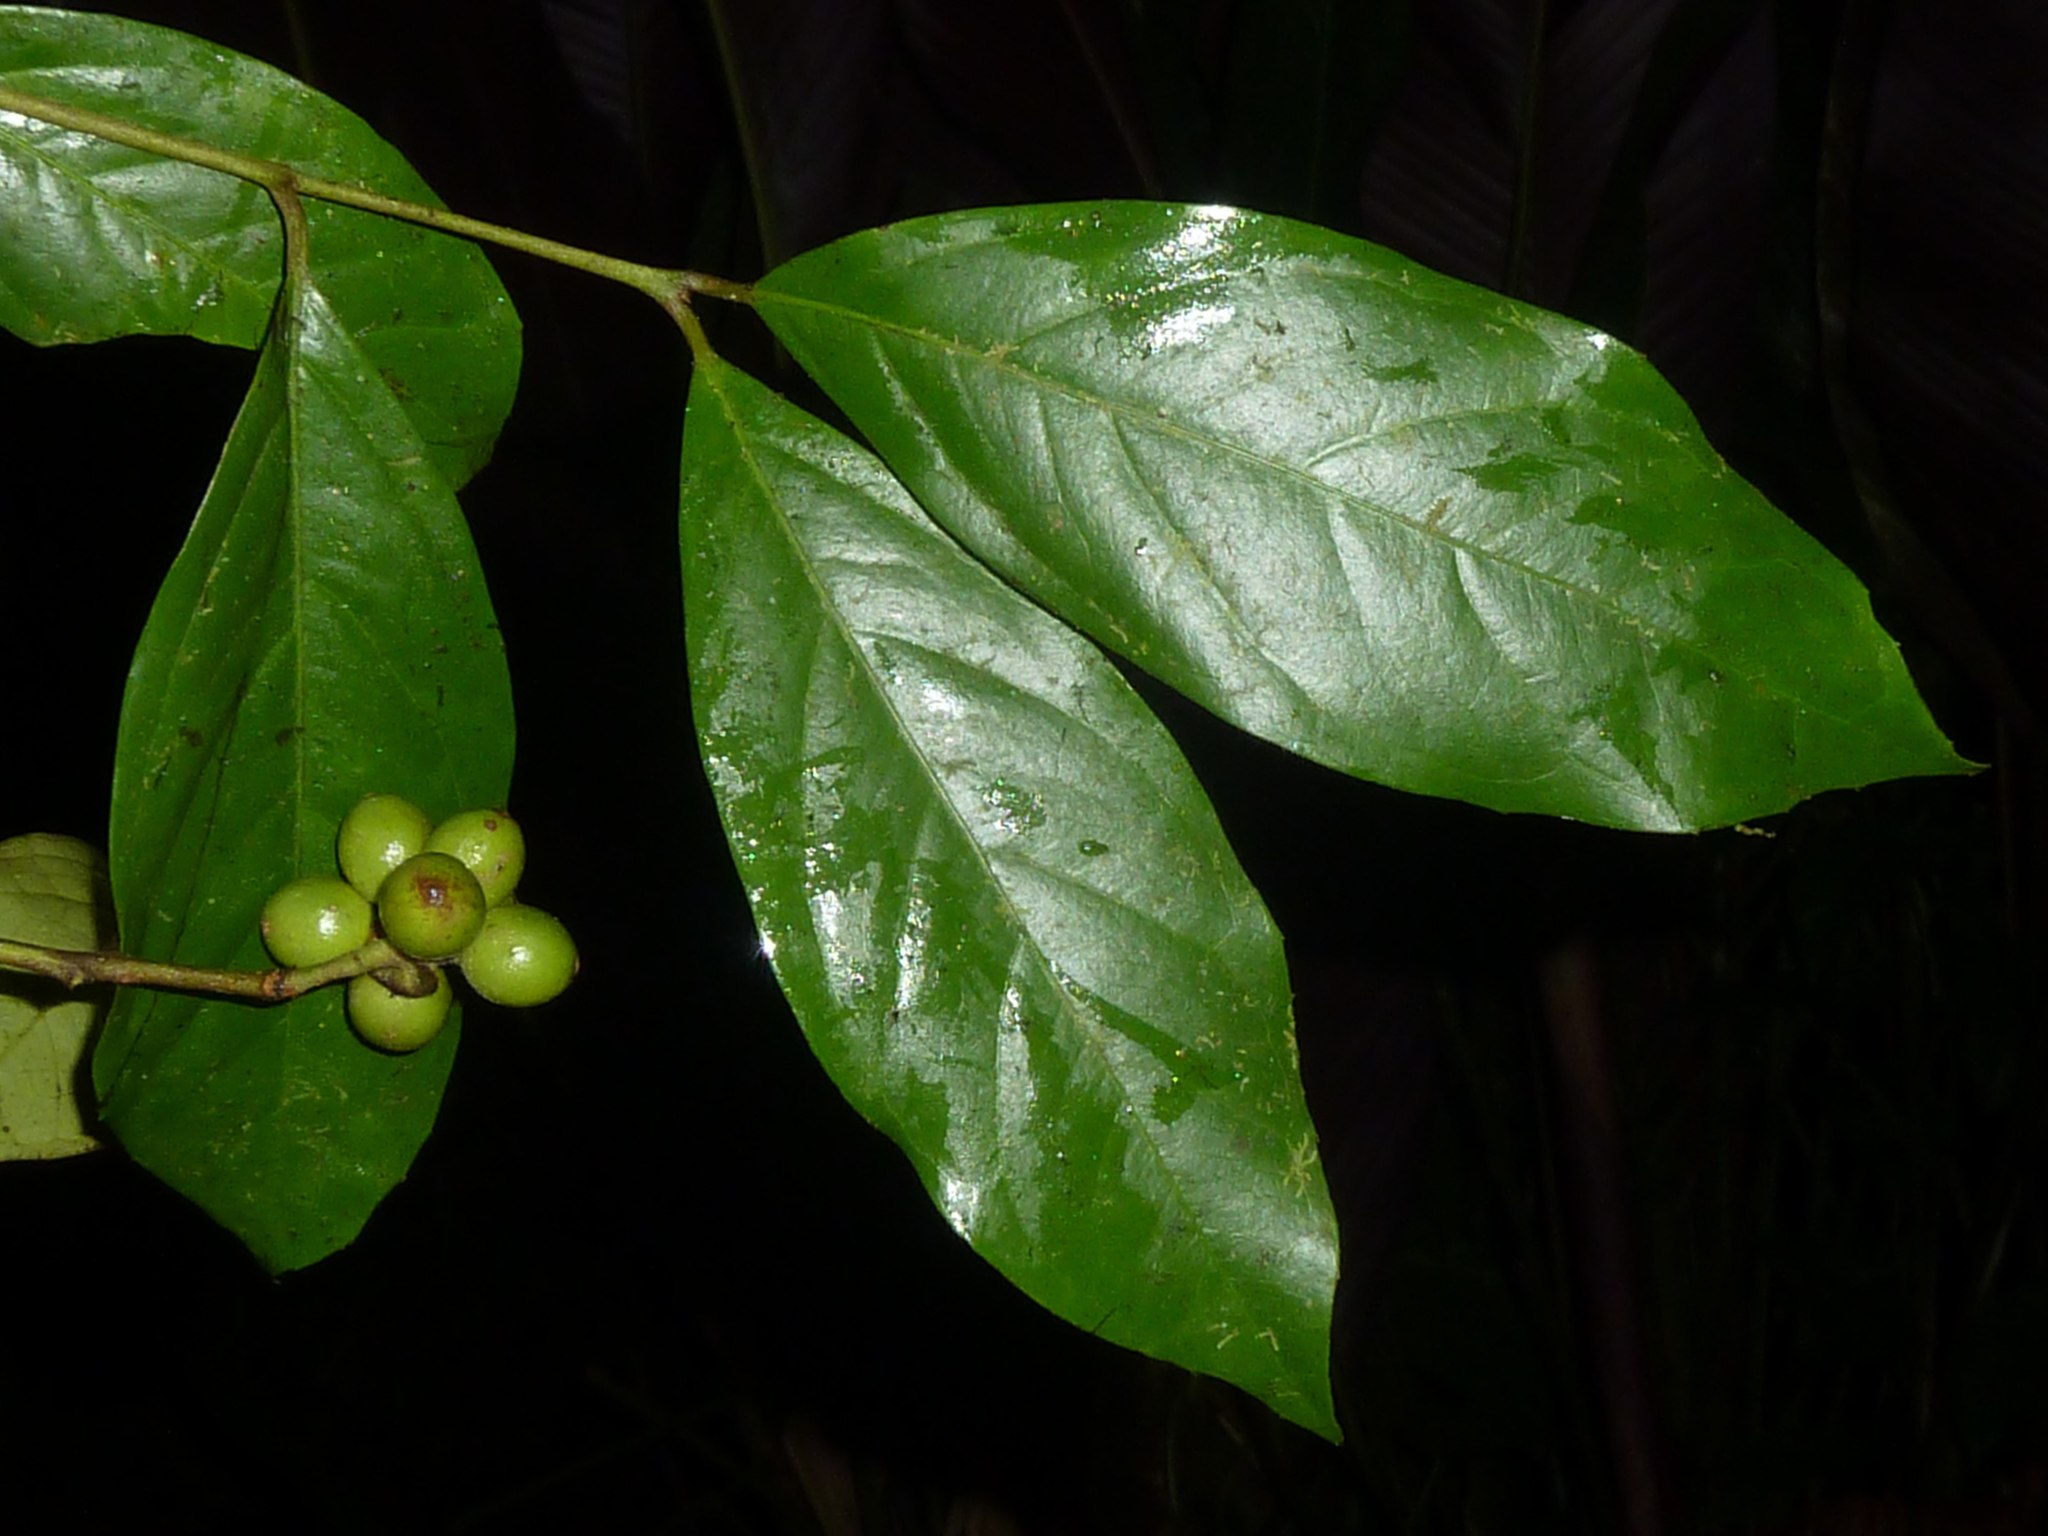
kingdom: Plantae
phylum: Tracheophyta
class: Magnoliopsida
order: Laurales
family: Monimiaceae
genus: Mollinedia
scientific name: Mollinedia viridiflora
